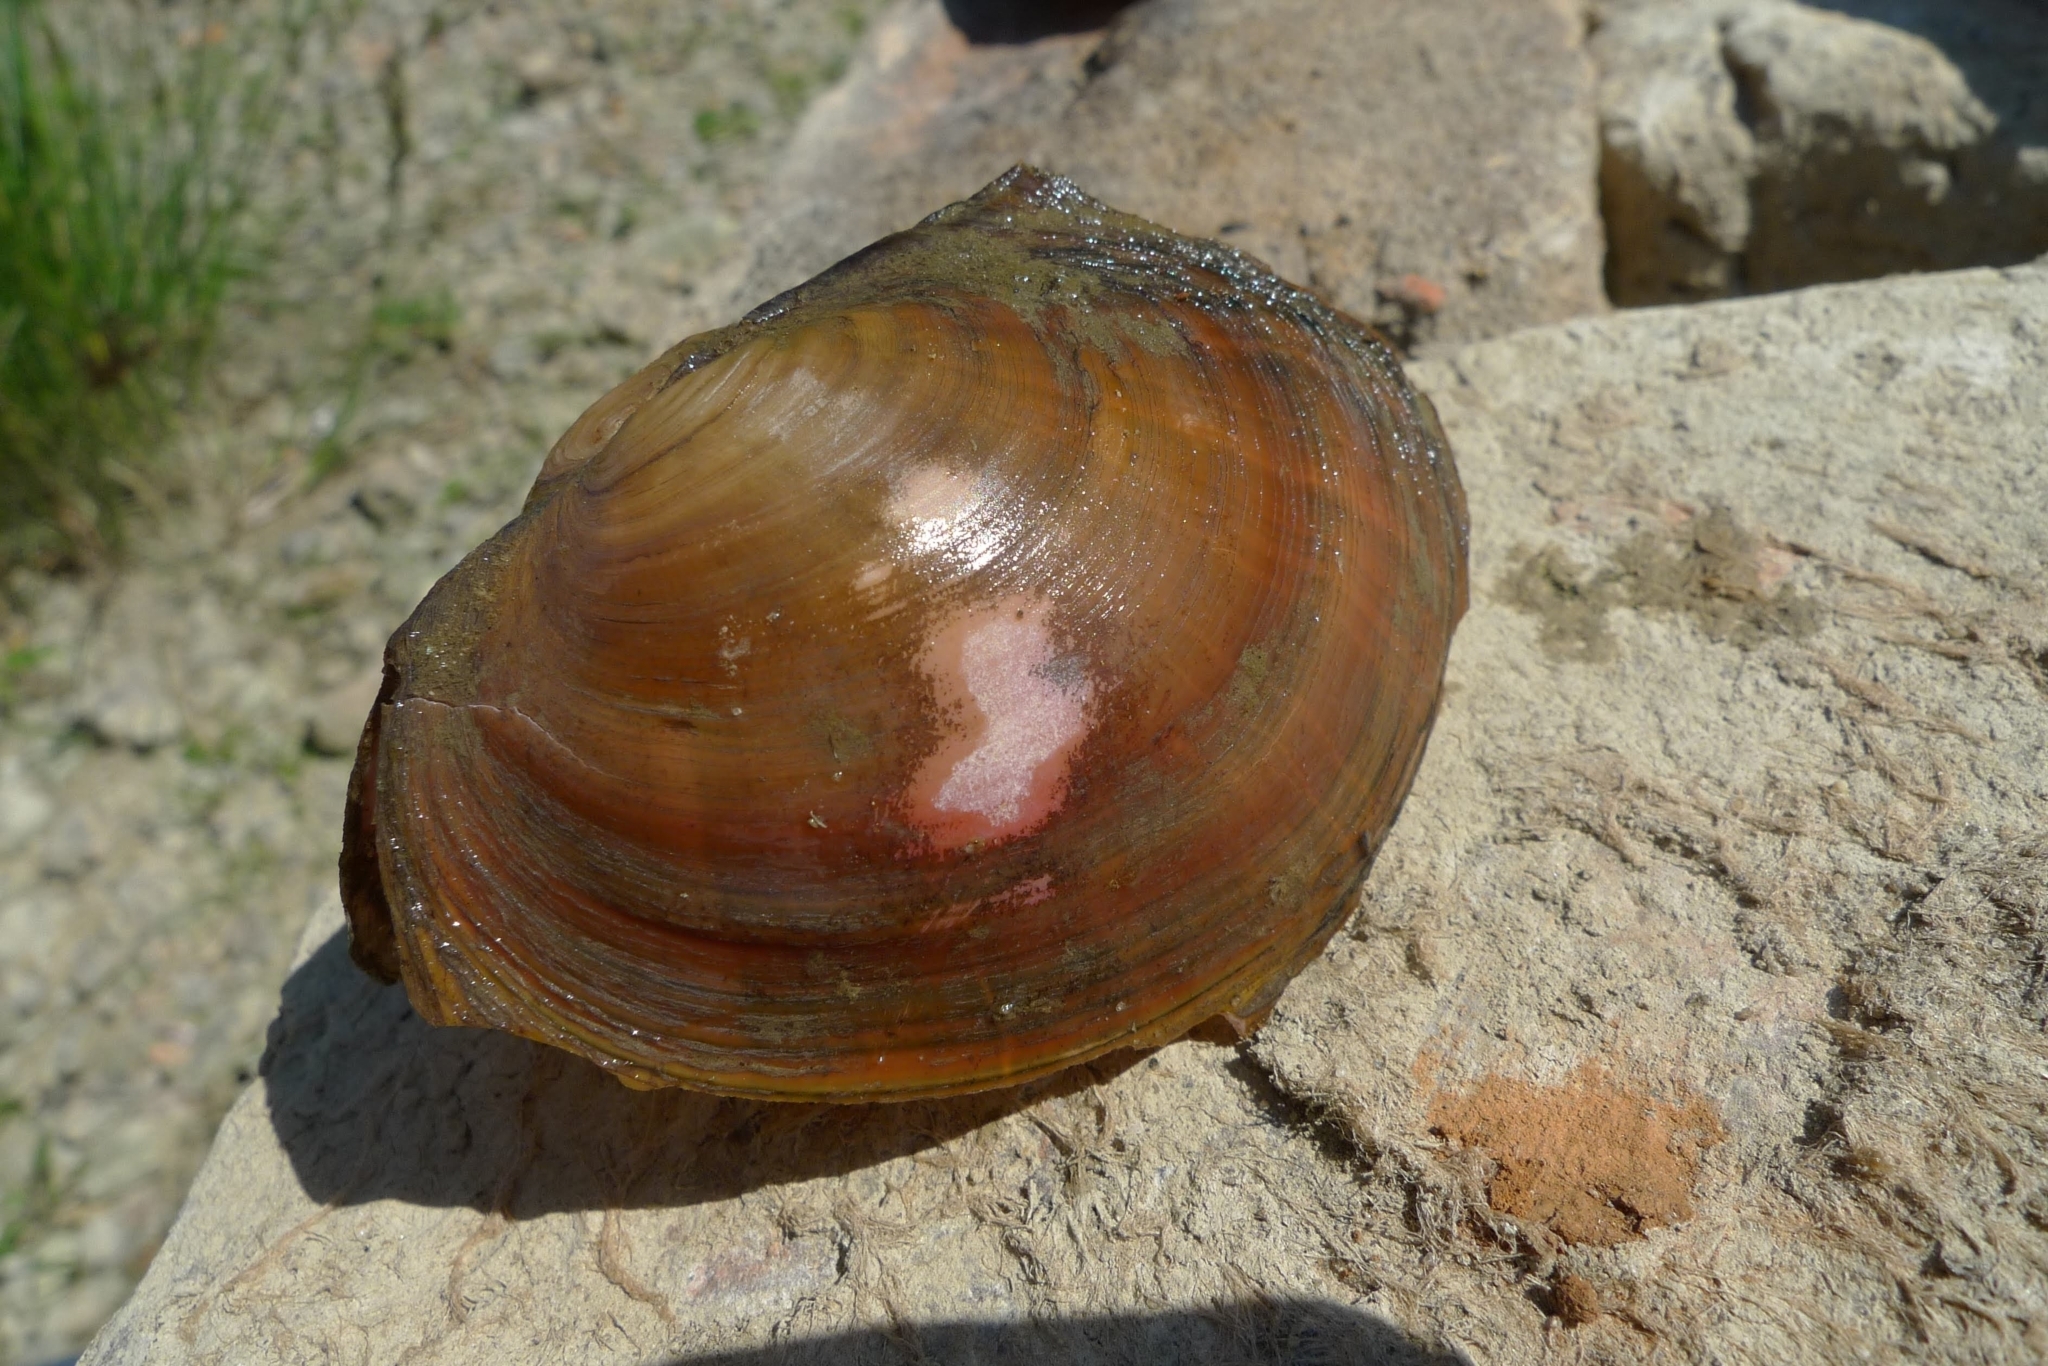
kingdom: Animalia
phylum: Mollusca
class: Bivalvia
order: Unionida
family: Unionidae
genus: Sinanodonta
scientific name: Sinanodonta woodiana
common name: Chinese pond mussel
